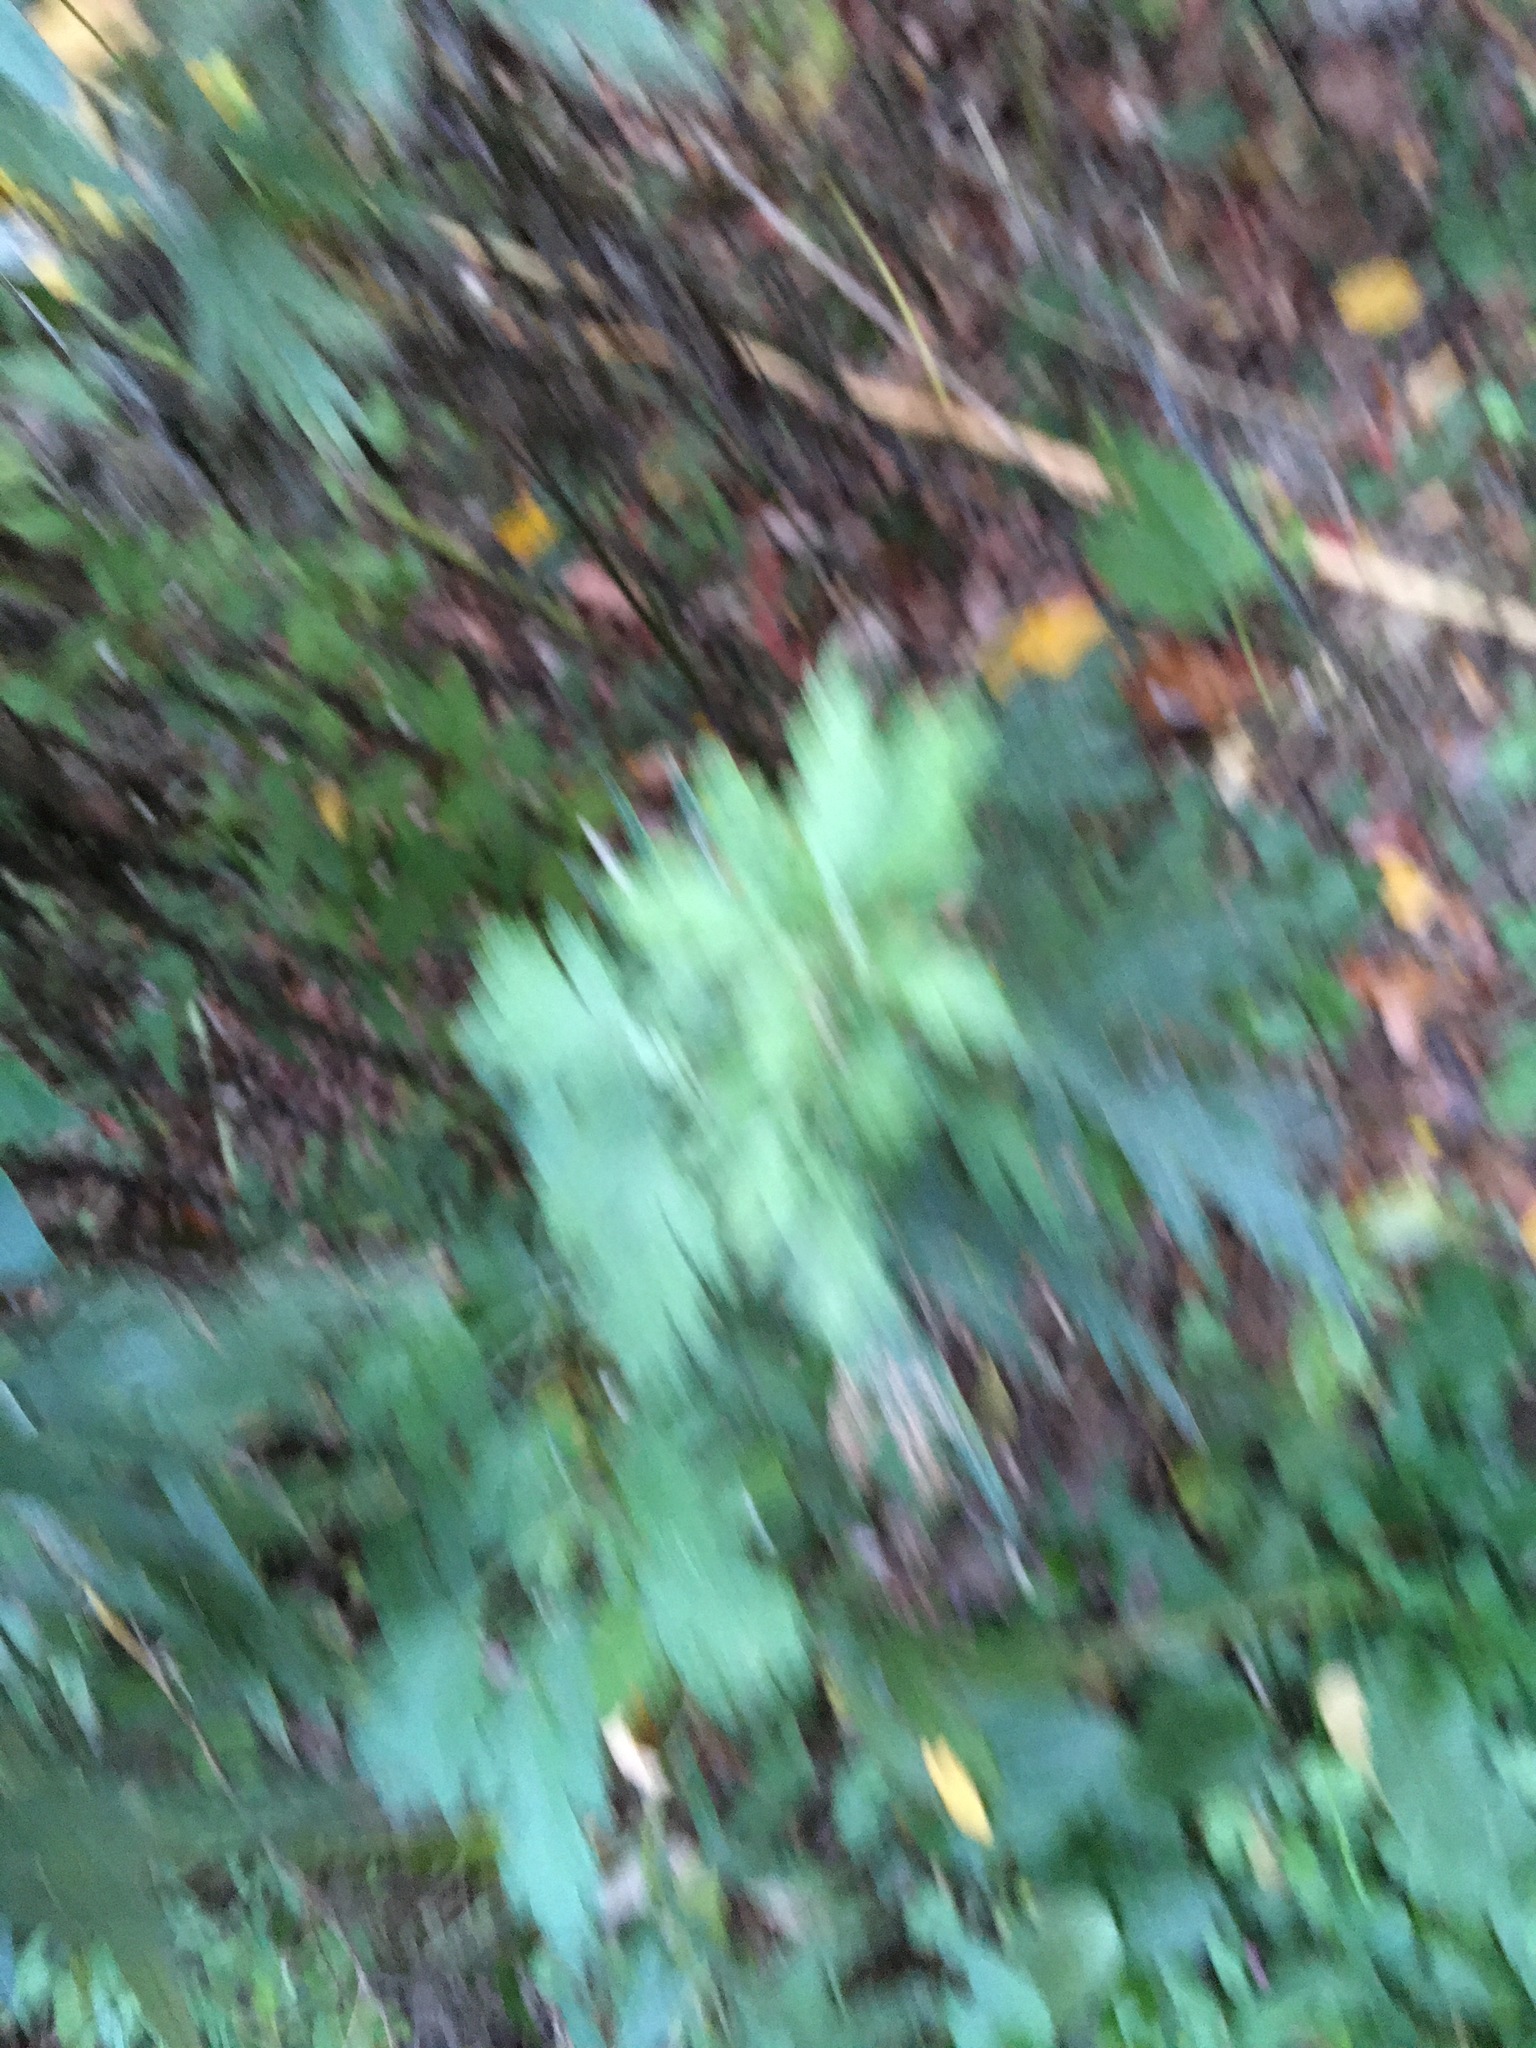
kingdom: Plantae
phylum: Tracheophyta
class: Magnoliopsida
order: Asterales
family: Asteraceae
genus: Artemisia
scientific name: Artemisia vulgaris
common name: Mugwort
